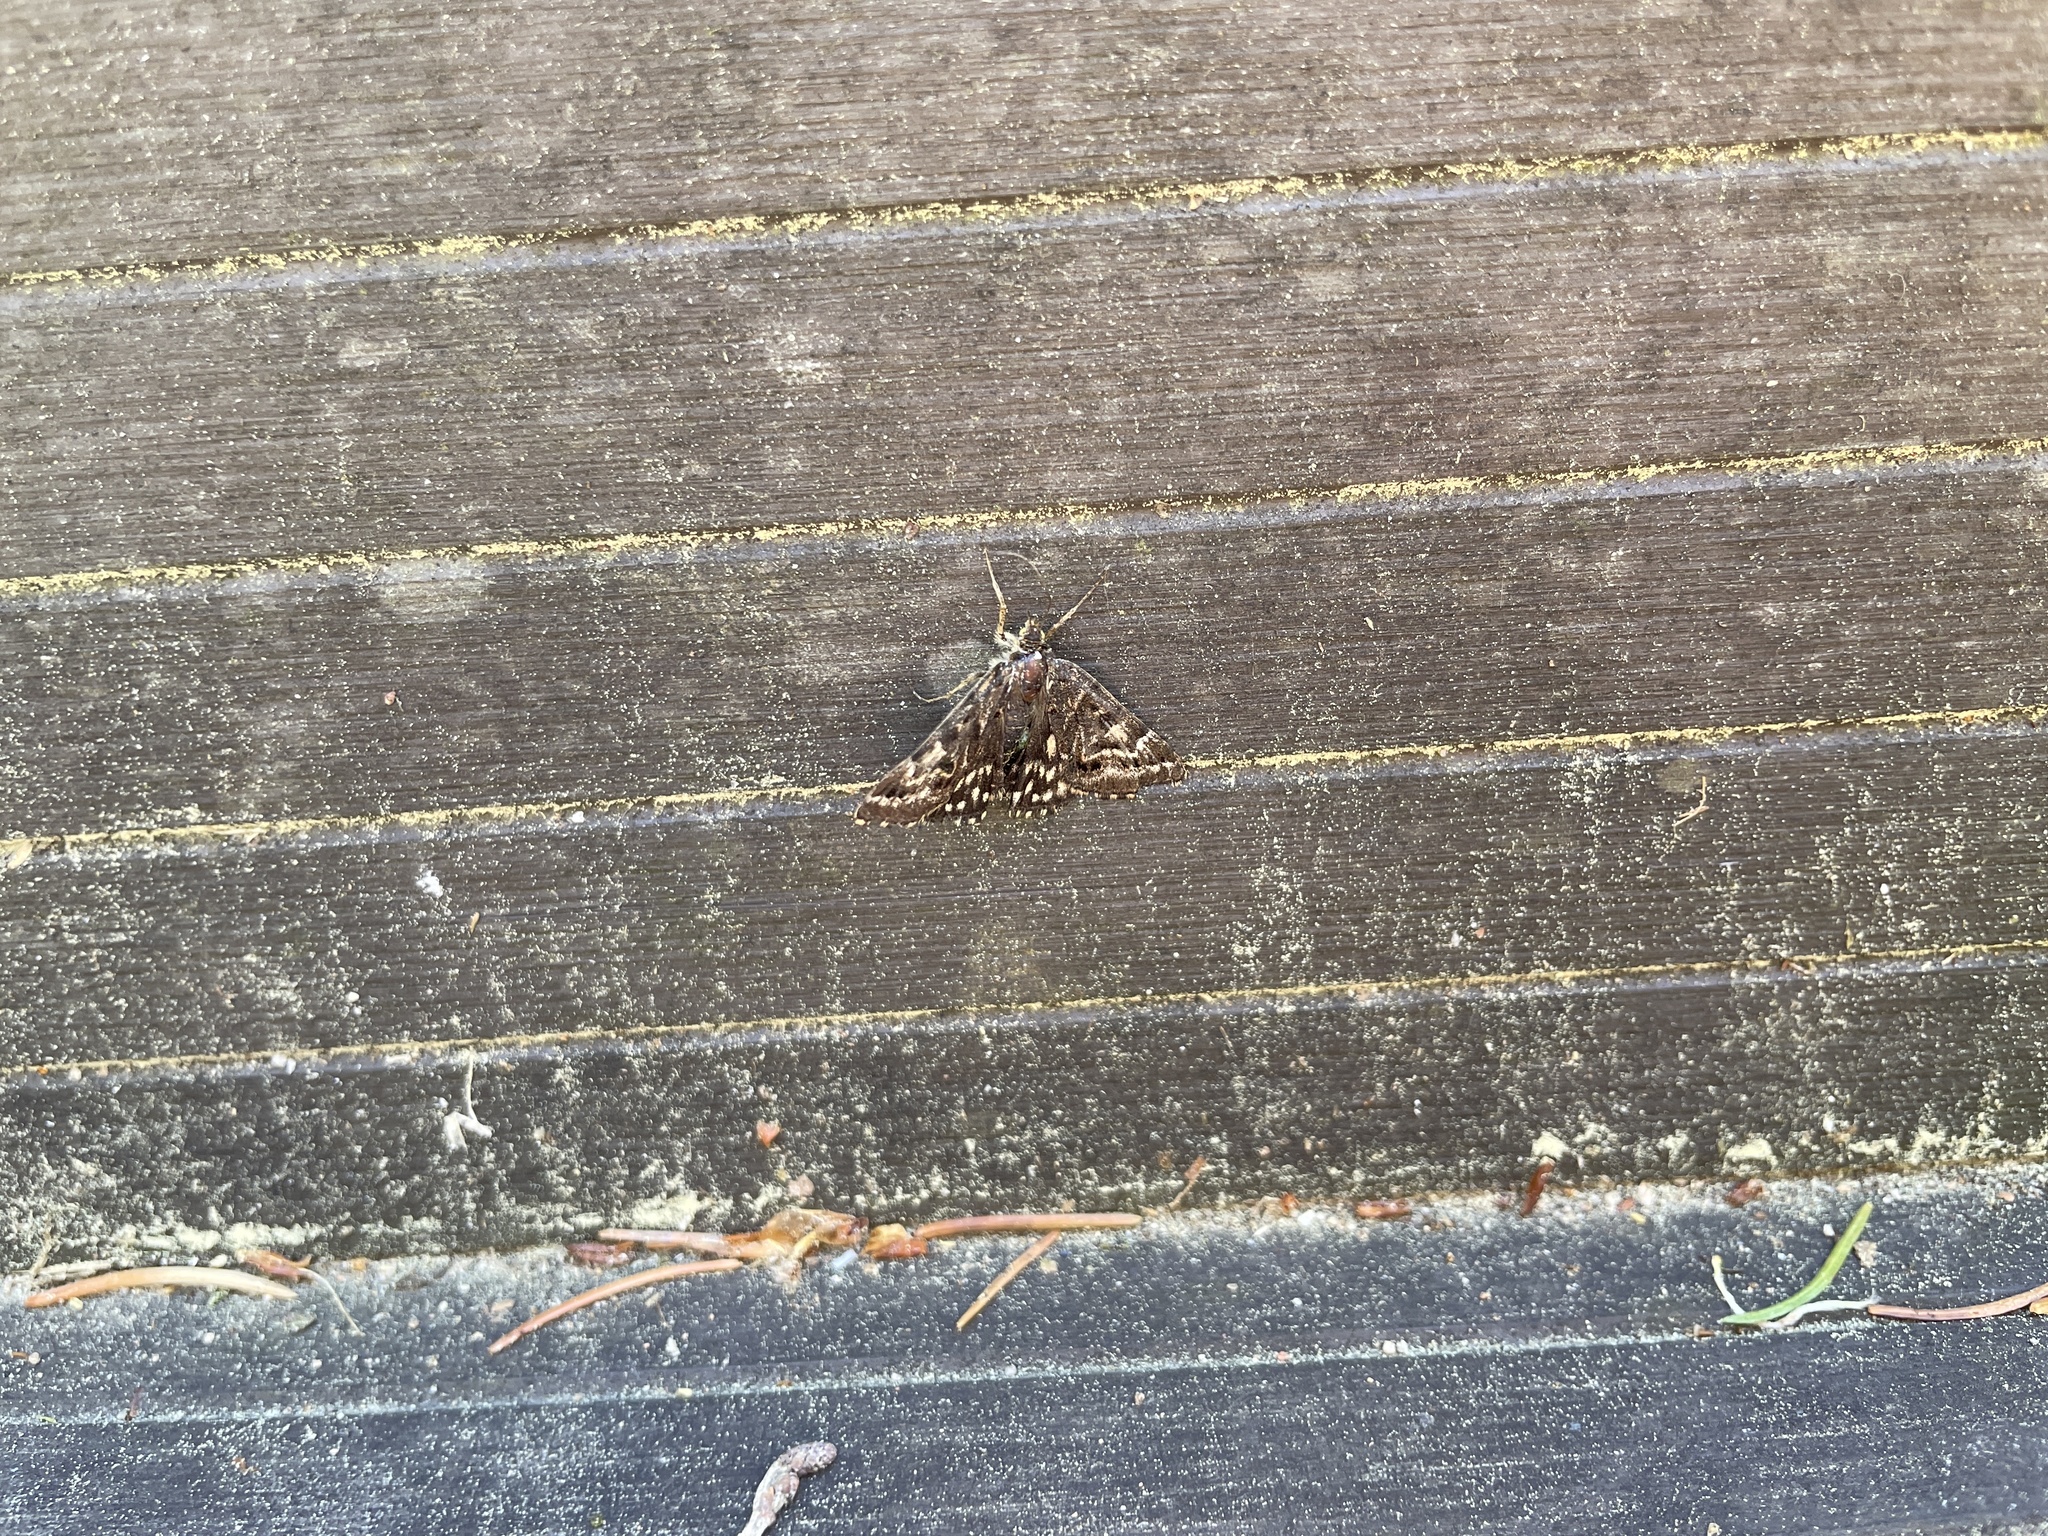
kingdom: Animalia
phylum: Arthropoda
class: Insecta
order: Lepidoptera
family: Erebidae
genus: Callistege
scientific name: Callistege mi
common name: Mother shipton
